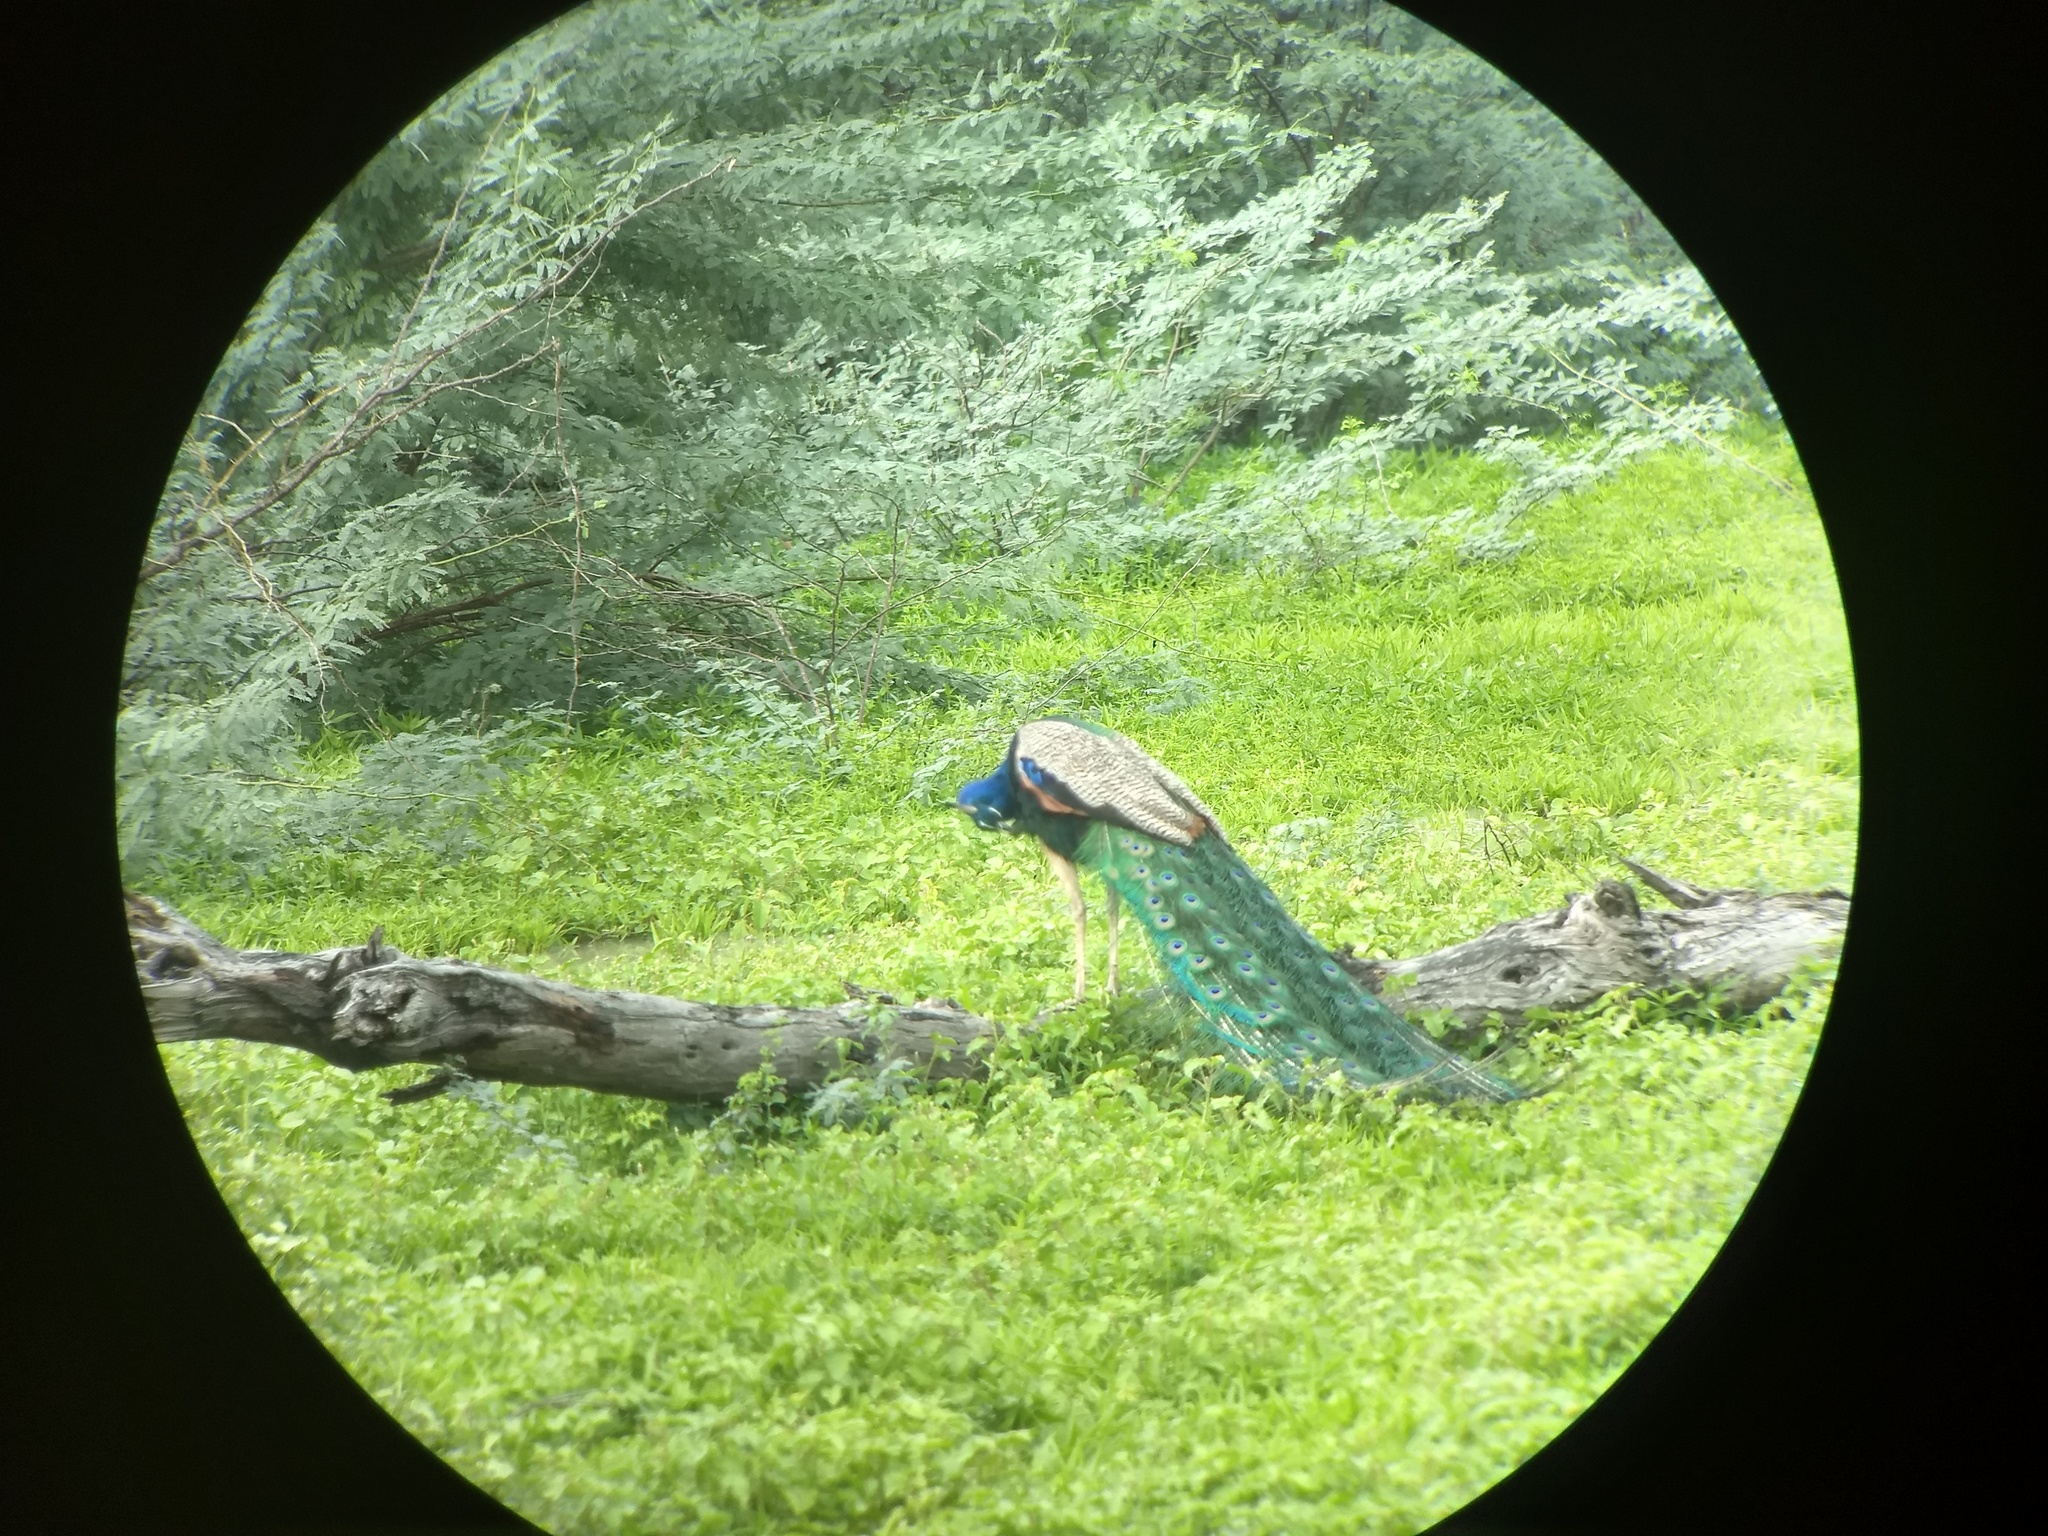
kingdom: Animalia
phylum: Chordata
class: Aves
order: Galliformes
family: Phasianidae
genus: Pavo
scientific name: Pavo cristatus
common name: Indian peafowl
